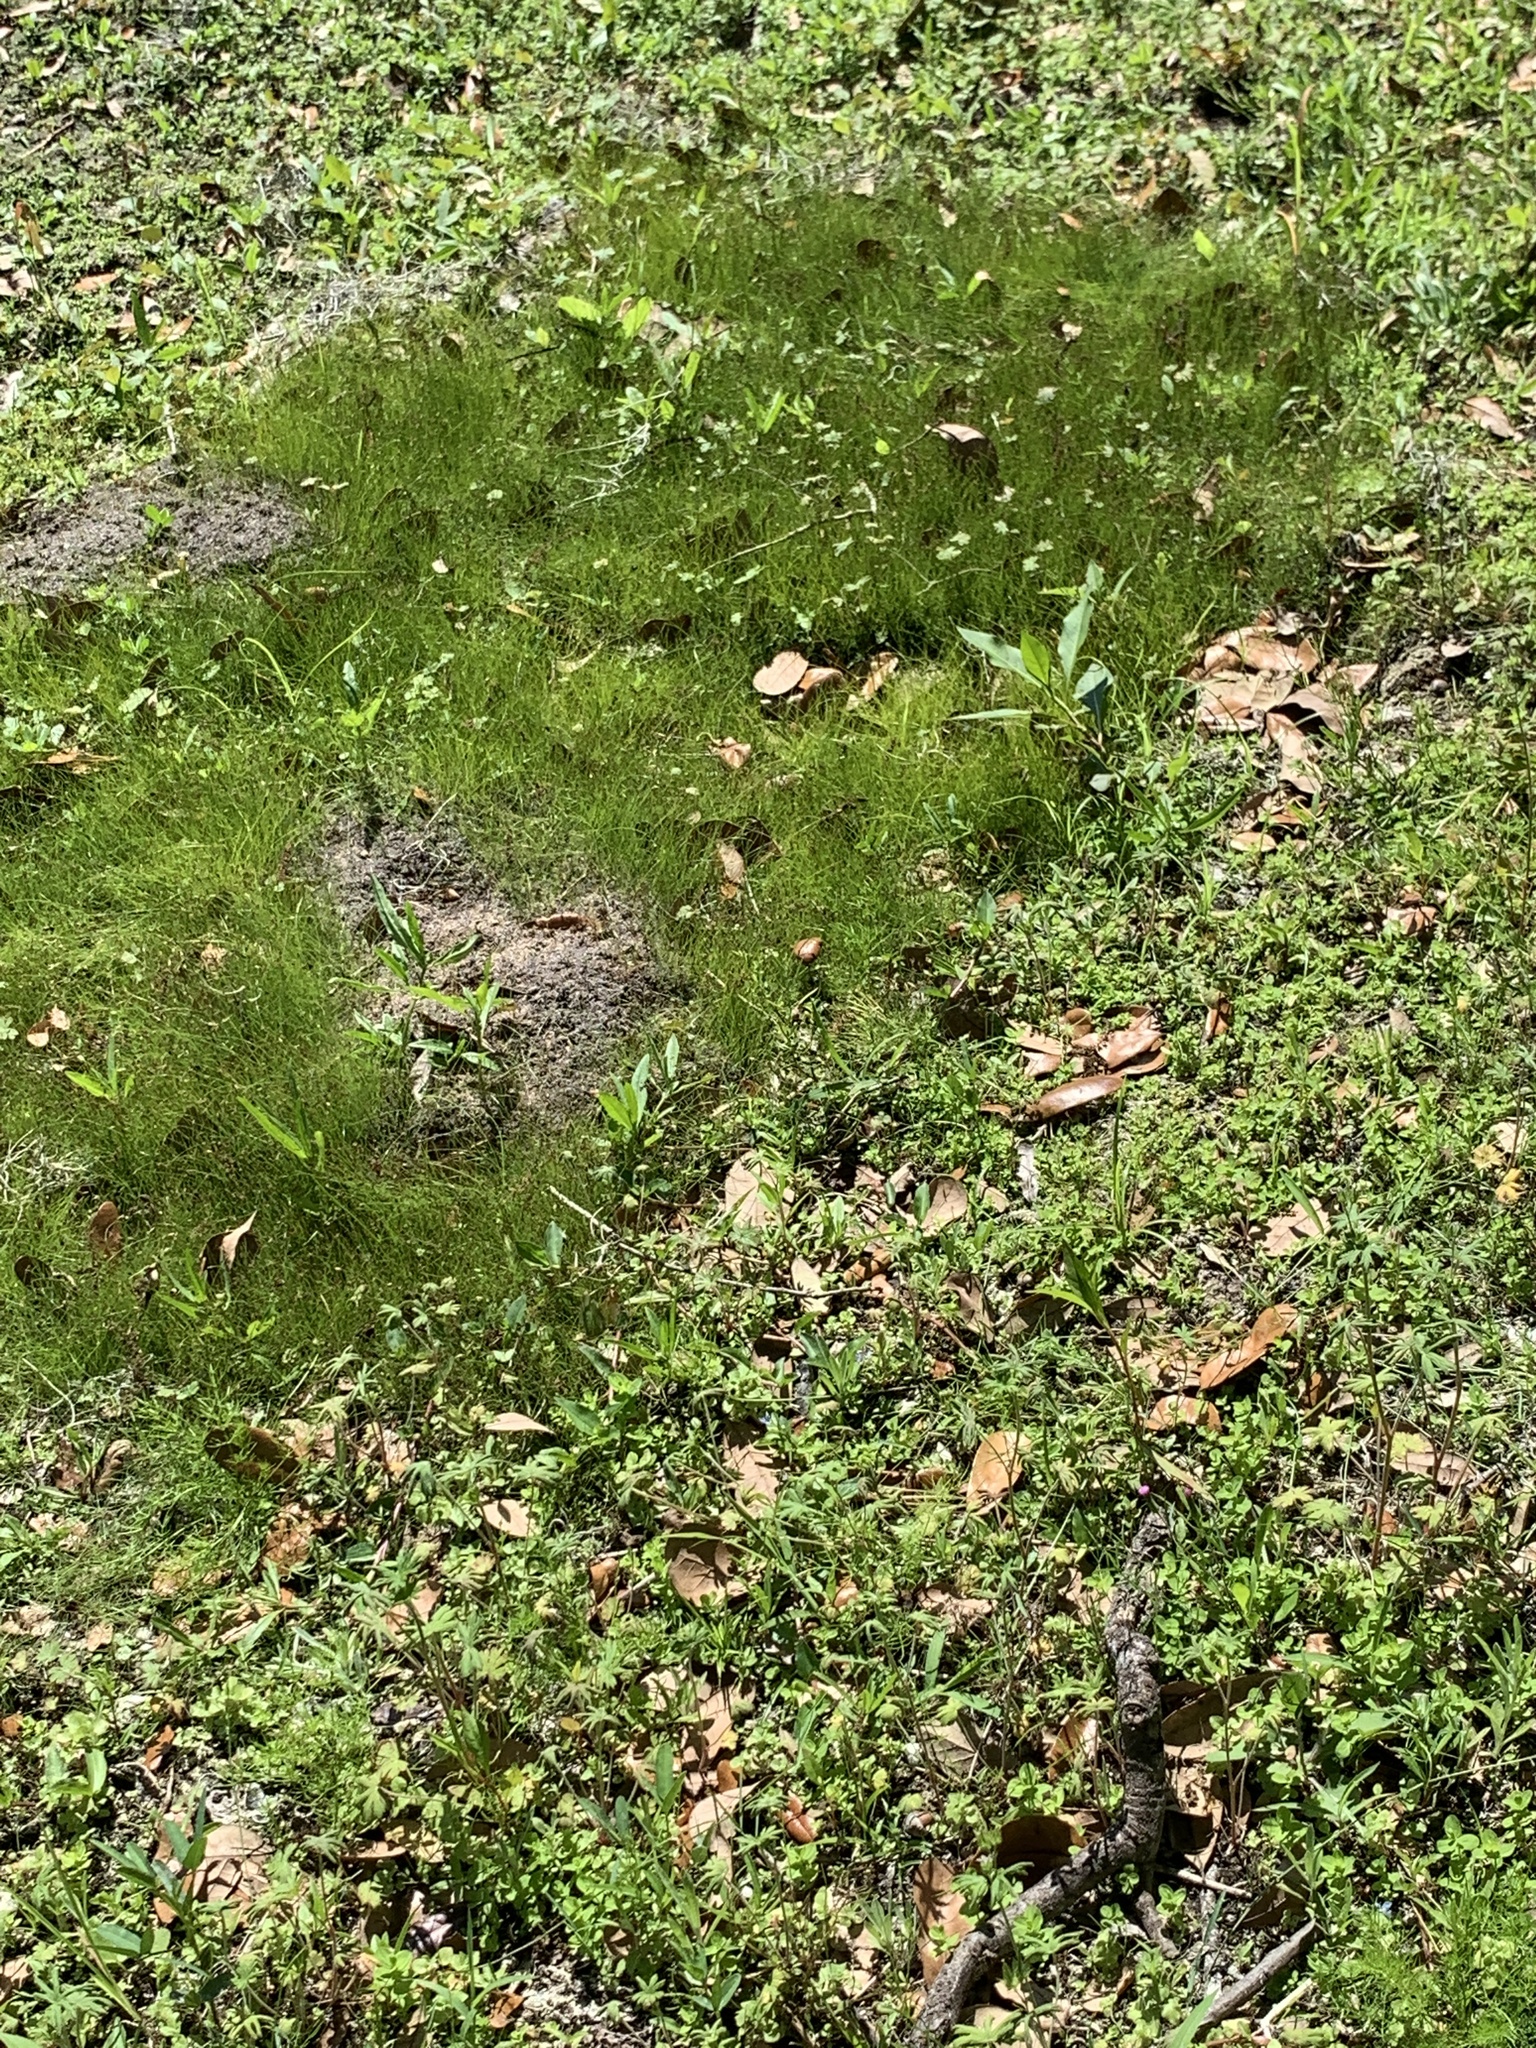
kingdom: Plantae
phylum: Tracheophyta
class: Liliopsida
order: Poales
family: Cyperaceae
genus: Eleocharis
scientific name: Eleocharis baldwinii
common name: Baldwin's spike-rush
